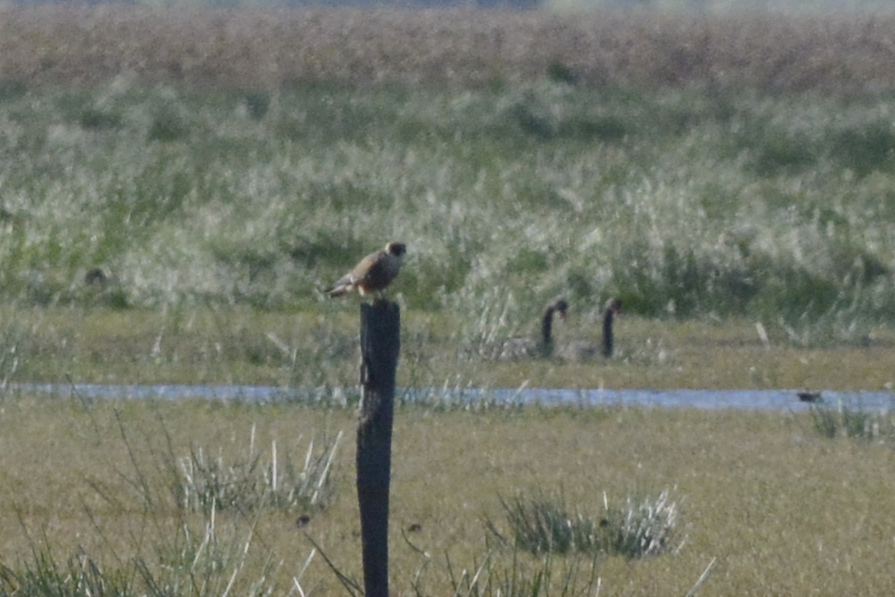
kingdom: Animalia
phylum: Chordata
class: Aves
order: Falconiformes
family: Falconidae
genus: Falco
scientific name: Falco longipennis
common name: Australian hobby
